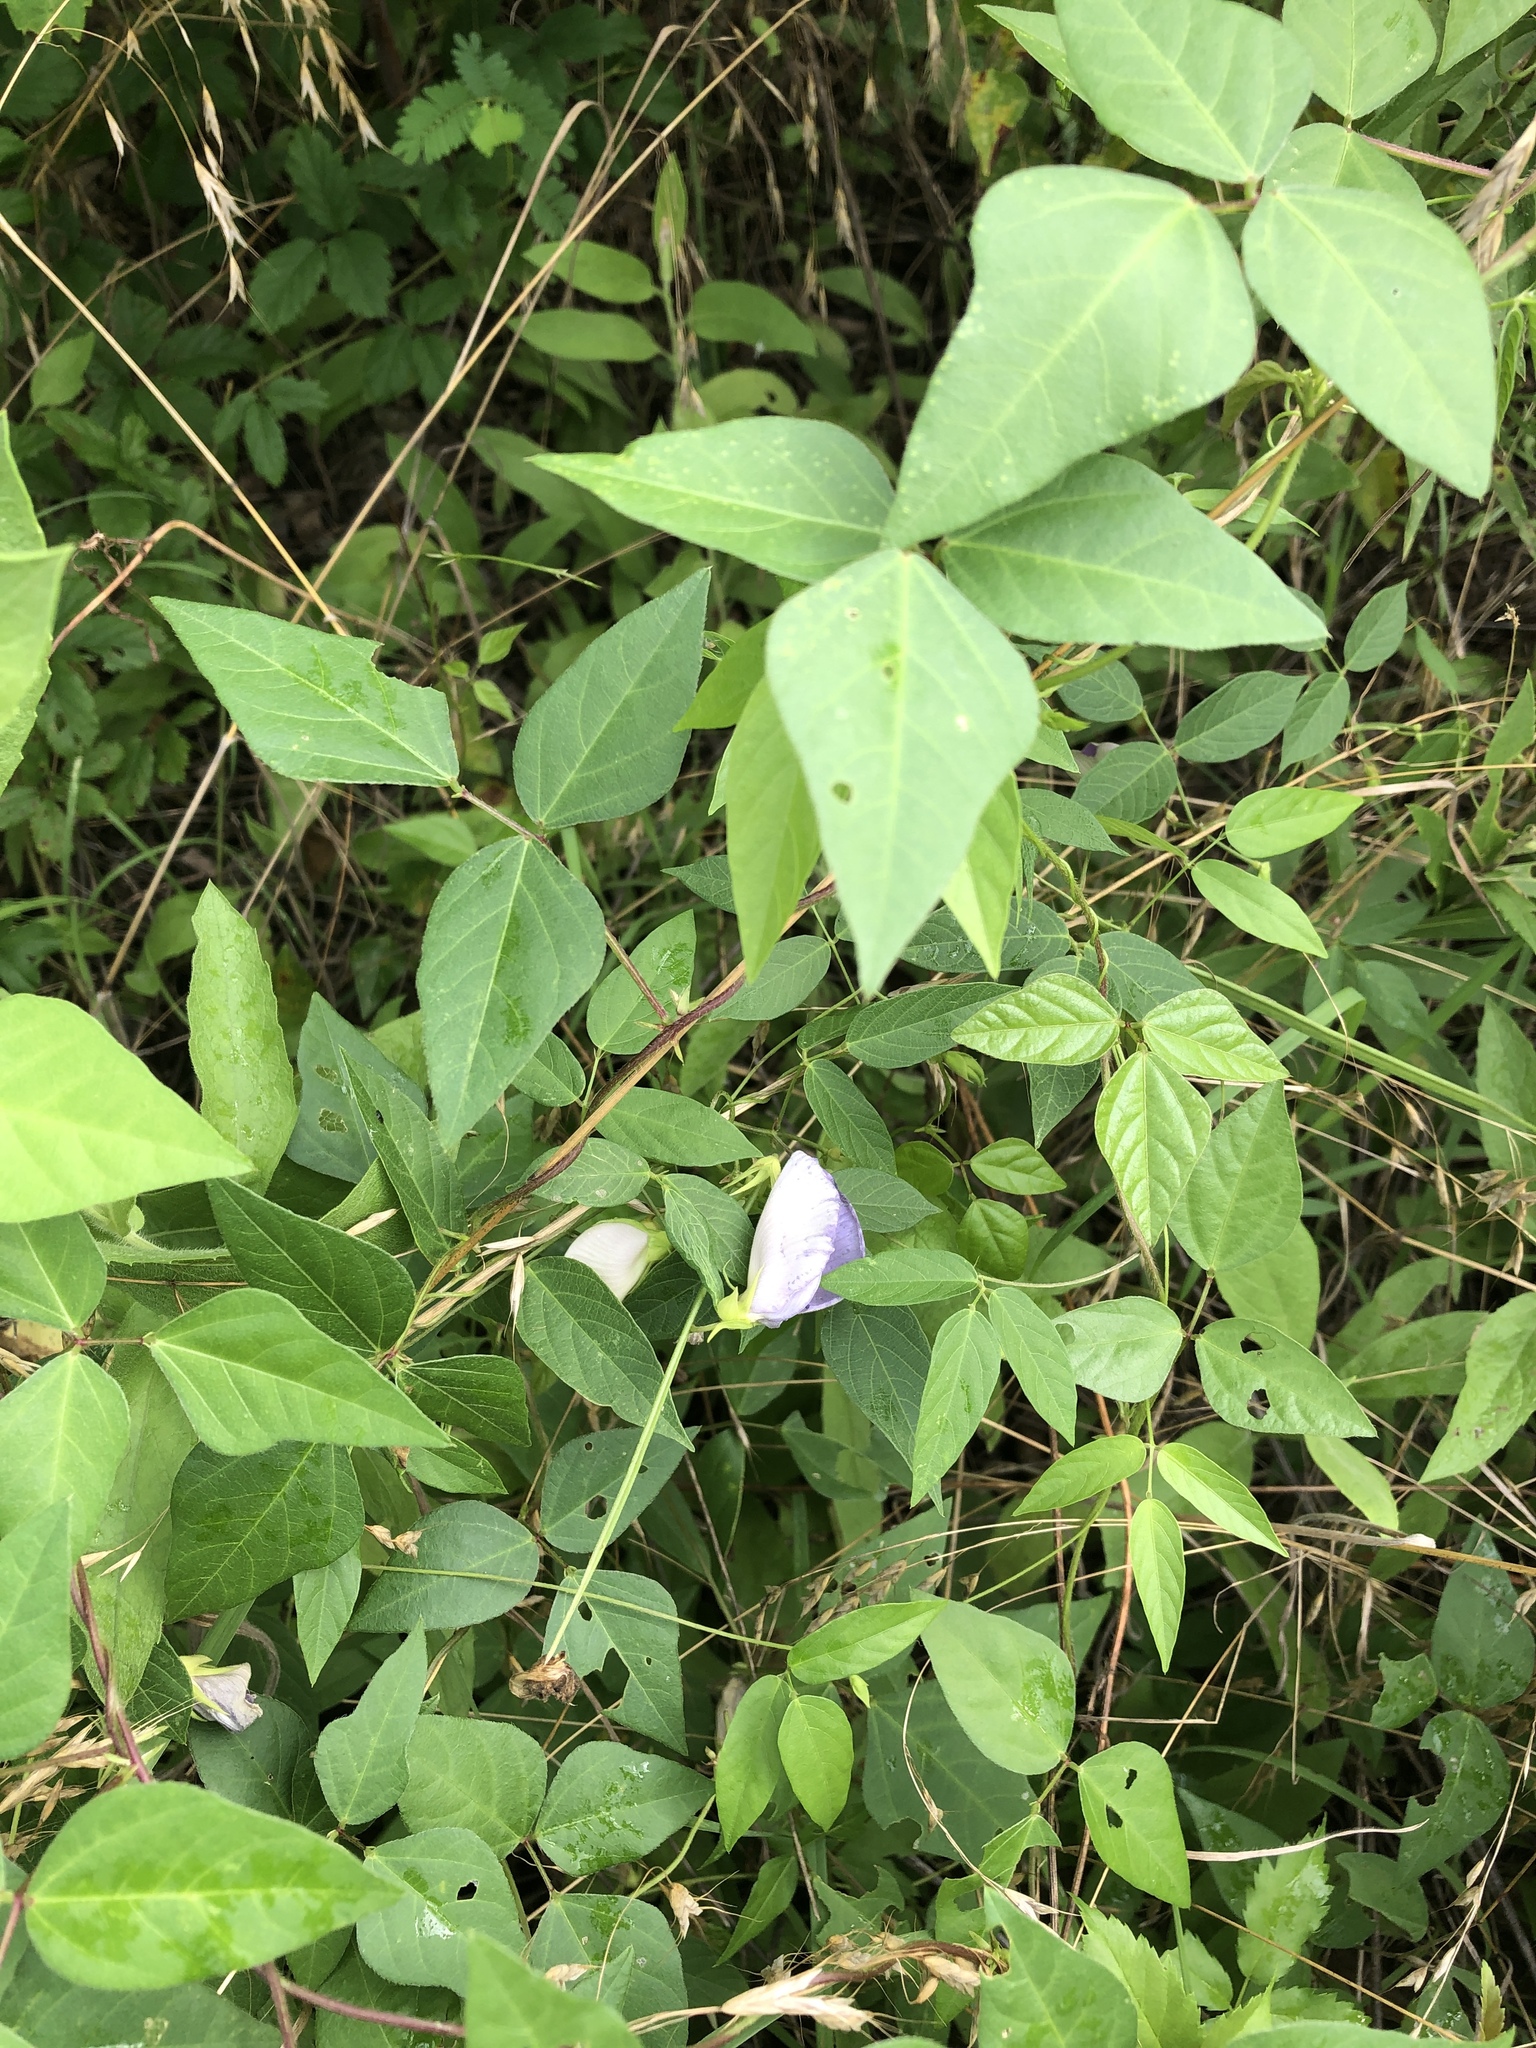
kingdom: Plantae
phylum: Tracheophyta
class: Magnoliopsida
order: Fabales
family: Fabaceae
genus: Centrosema
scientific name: Centrosema virginianum
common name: Butterfly-pea
